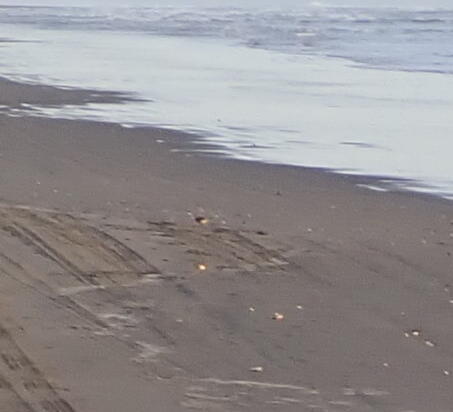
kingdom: Animalia
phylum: Chordata
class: Aves
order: Passeriformes
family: Motacillidae
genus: Anthus
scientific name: Anthus novaeseelandiae
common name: New zealand pipit
